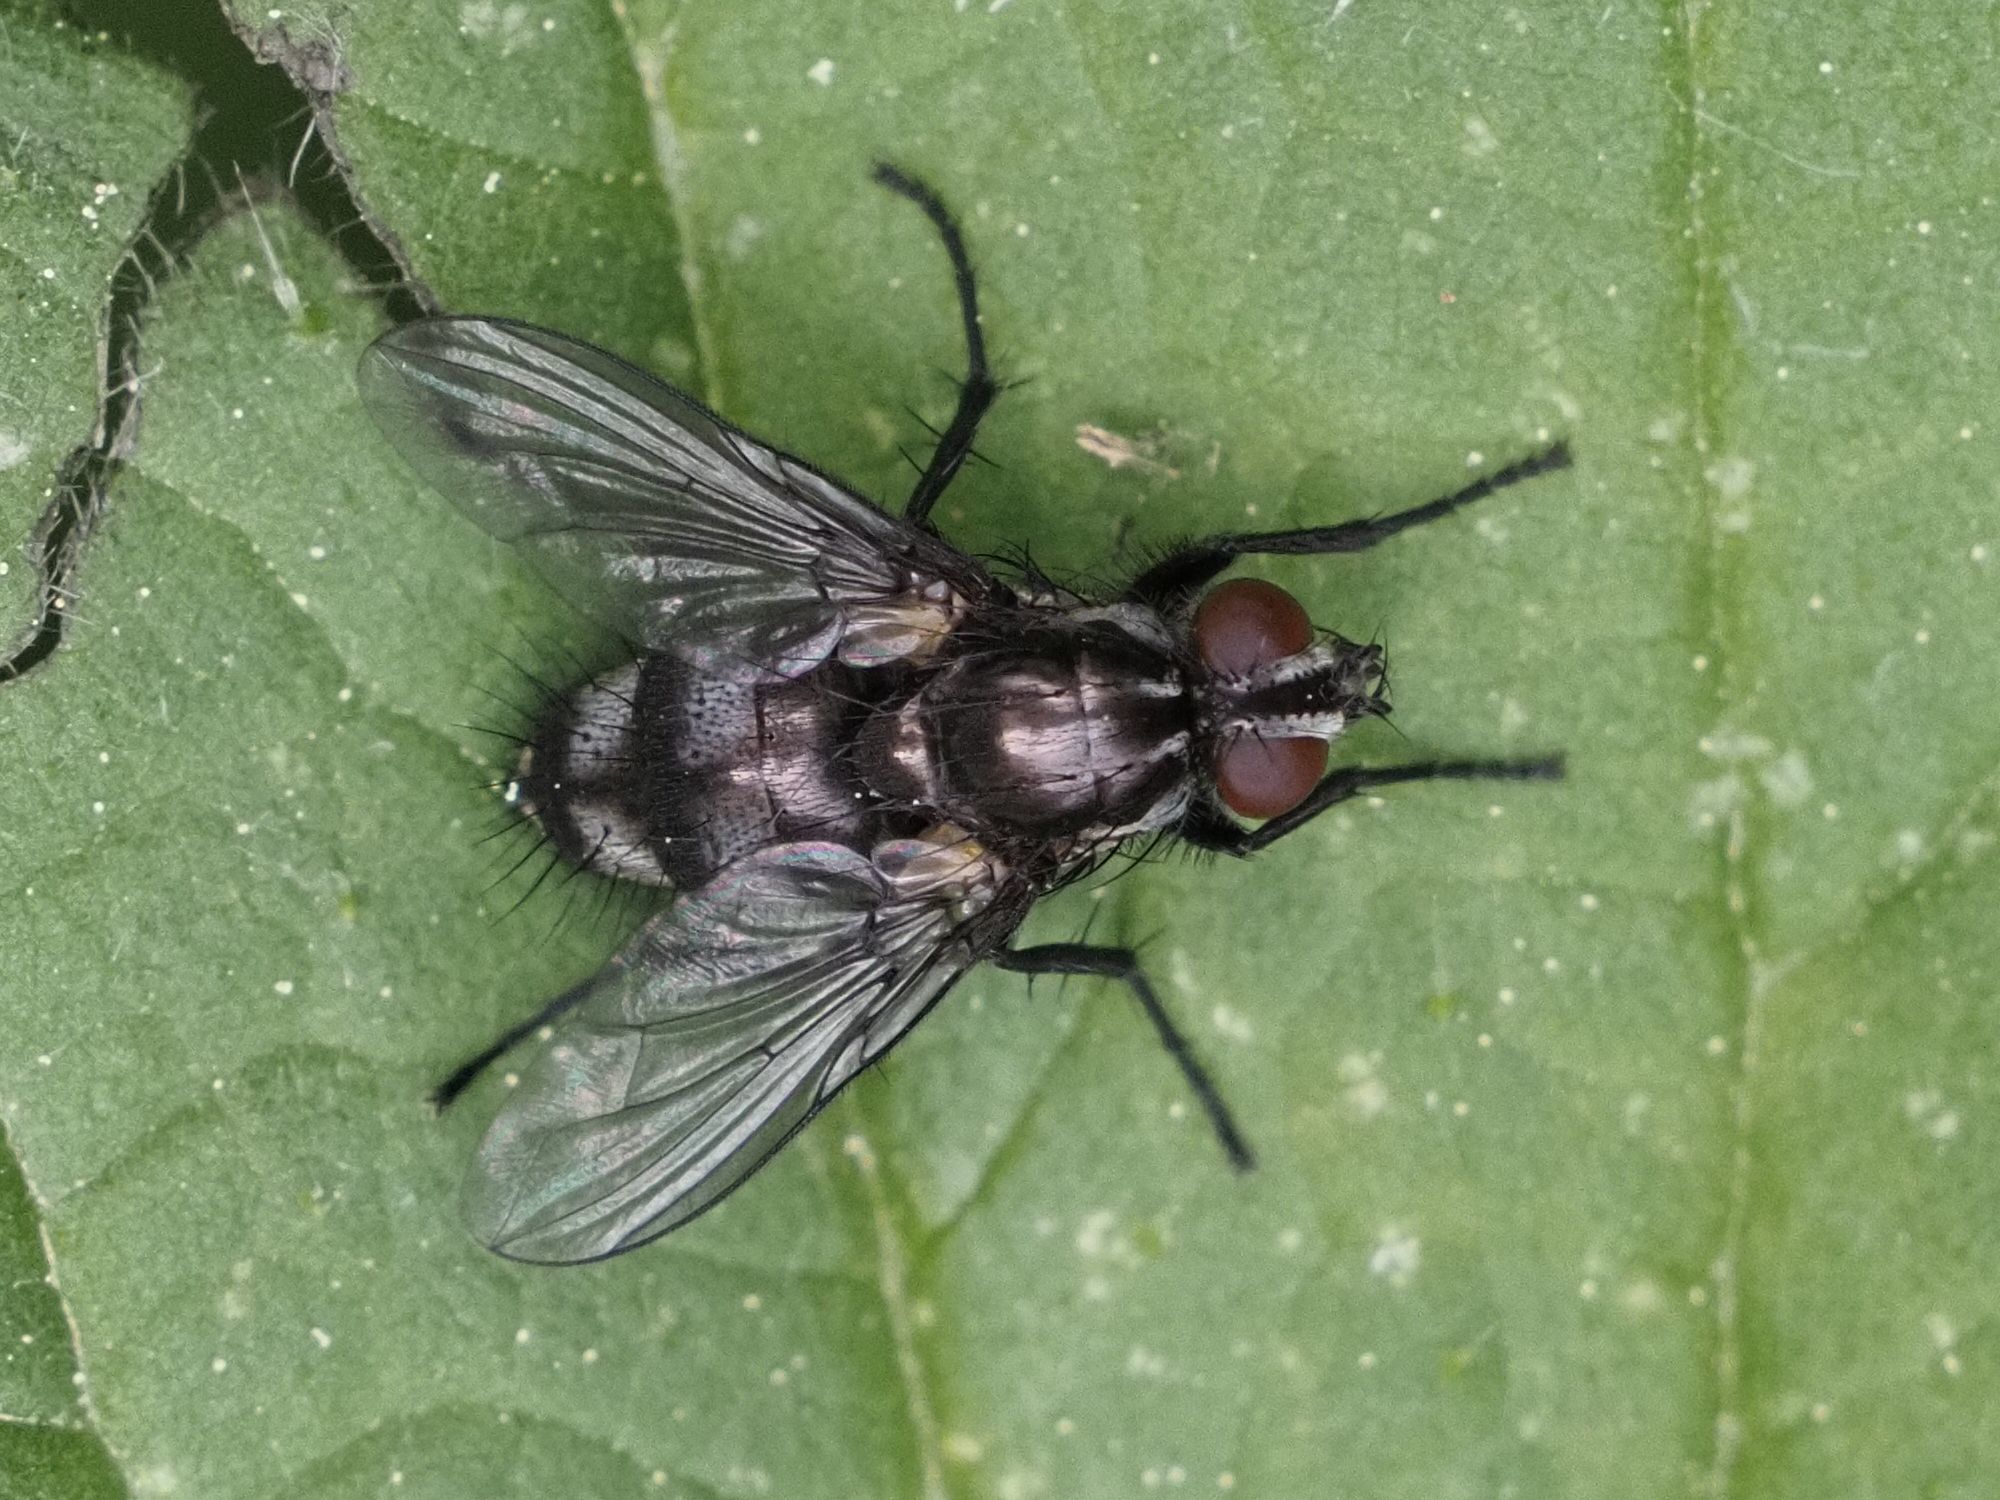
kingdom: Animalia
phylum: Arthropoda
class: Insecta
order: Diptera
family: Calliphoridae
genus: Rhinomorinia
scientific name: Rhinomorinia sarcophagina
